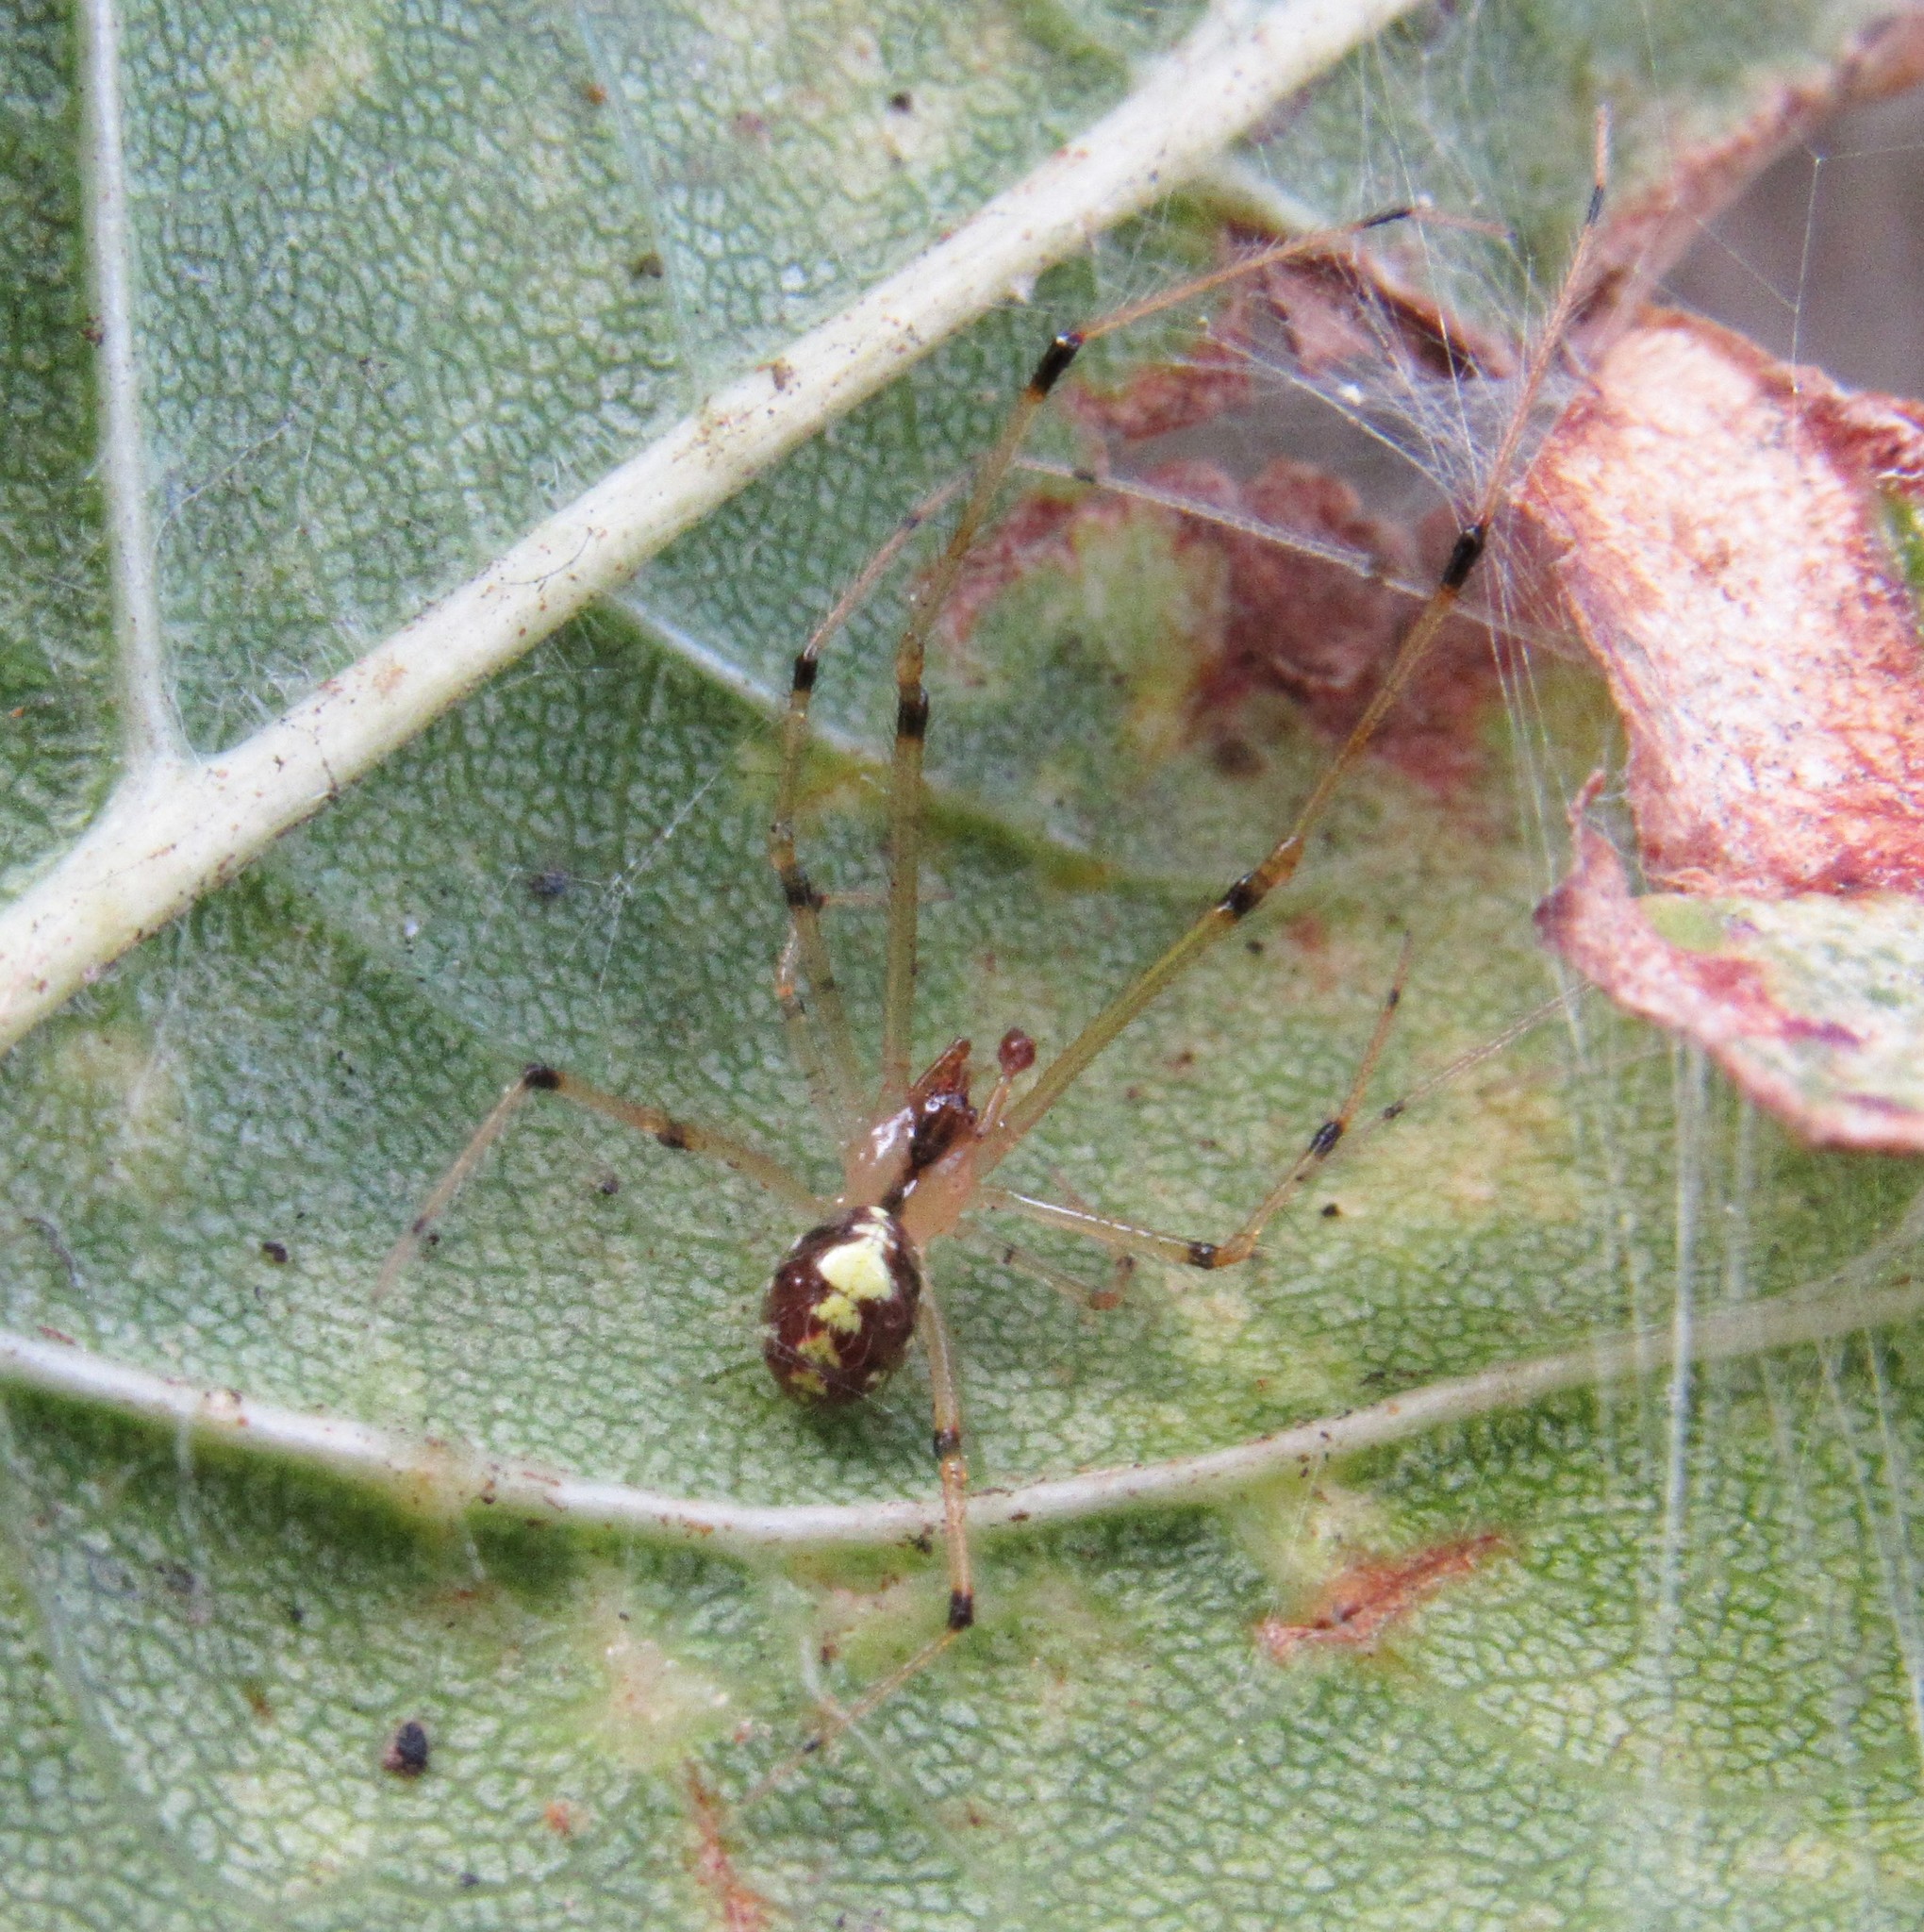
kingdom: Animalia
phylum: Arthropoda
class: Arachnida
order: Araneae
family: Theridiidae
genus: Theridion
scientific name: Theridion frizzellorum
